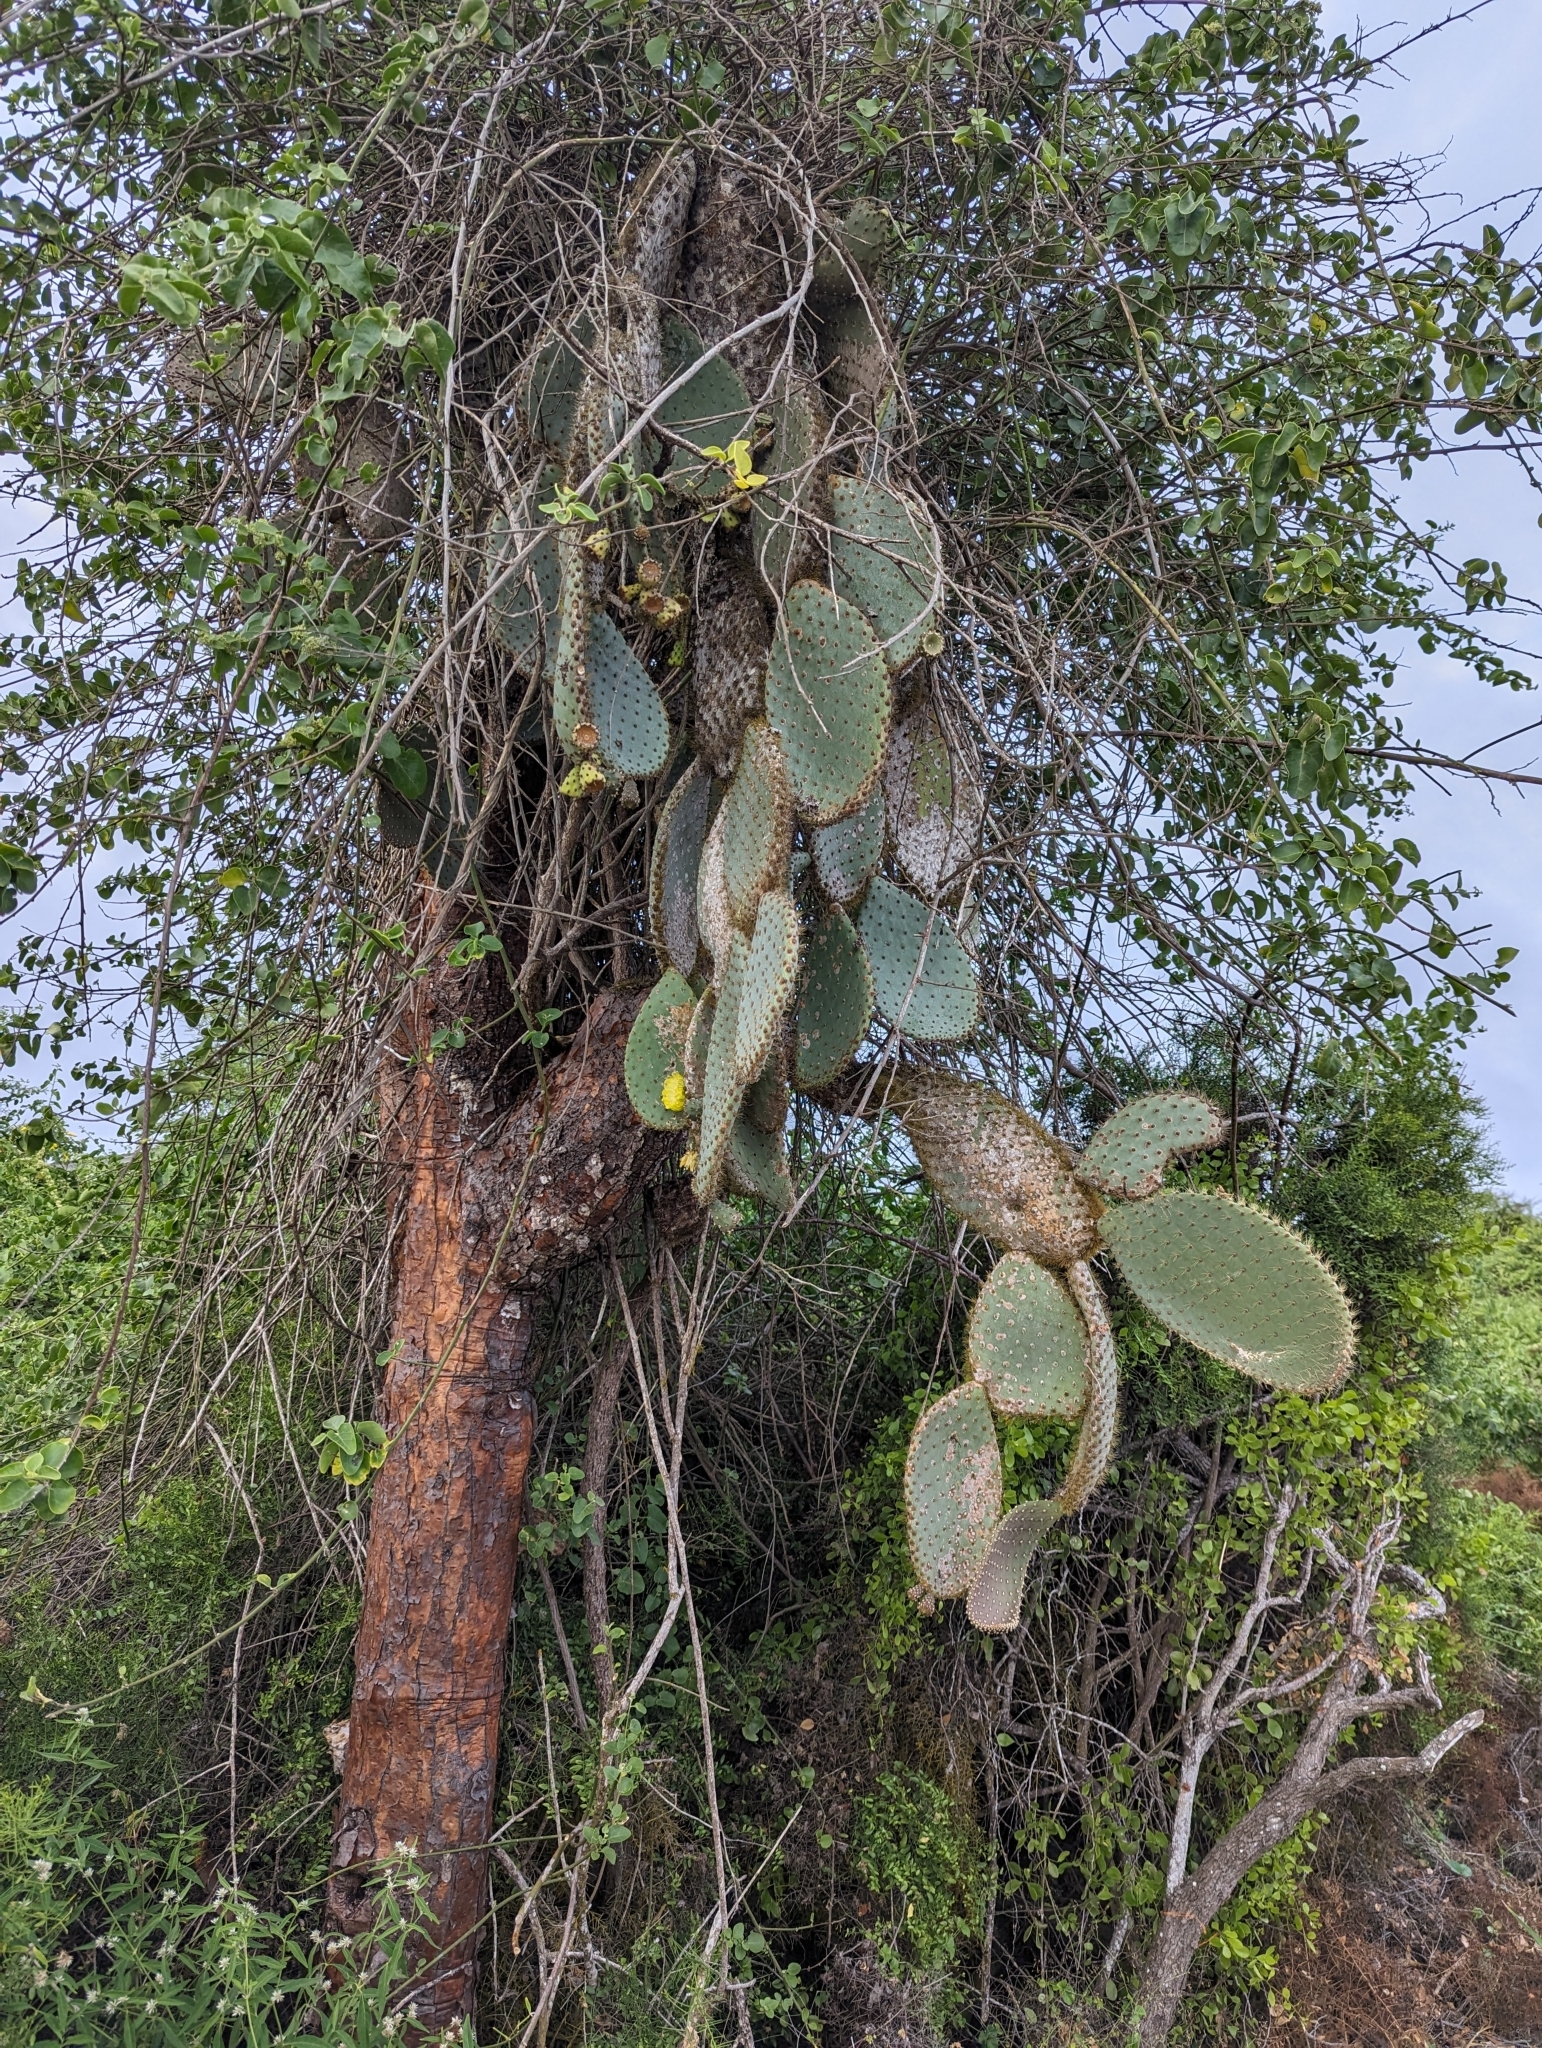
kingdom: Plantae
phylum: Tracheophyta
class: Magnoliopsida
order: Caryophyllales
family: Cactaceae
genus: Opuntia
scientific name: Opuntia galapageia
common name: Galápagos prickly pear
